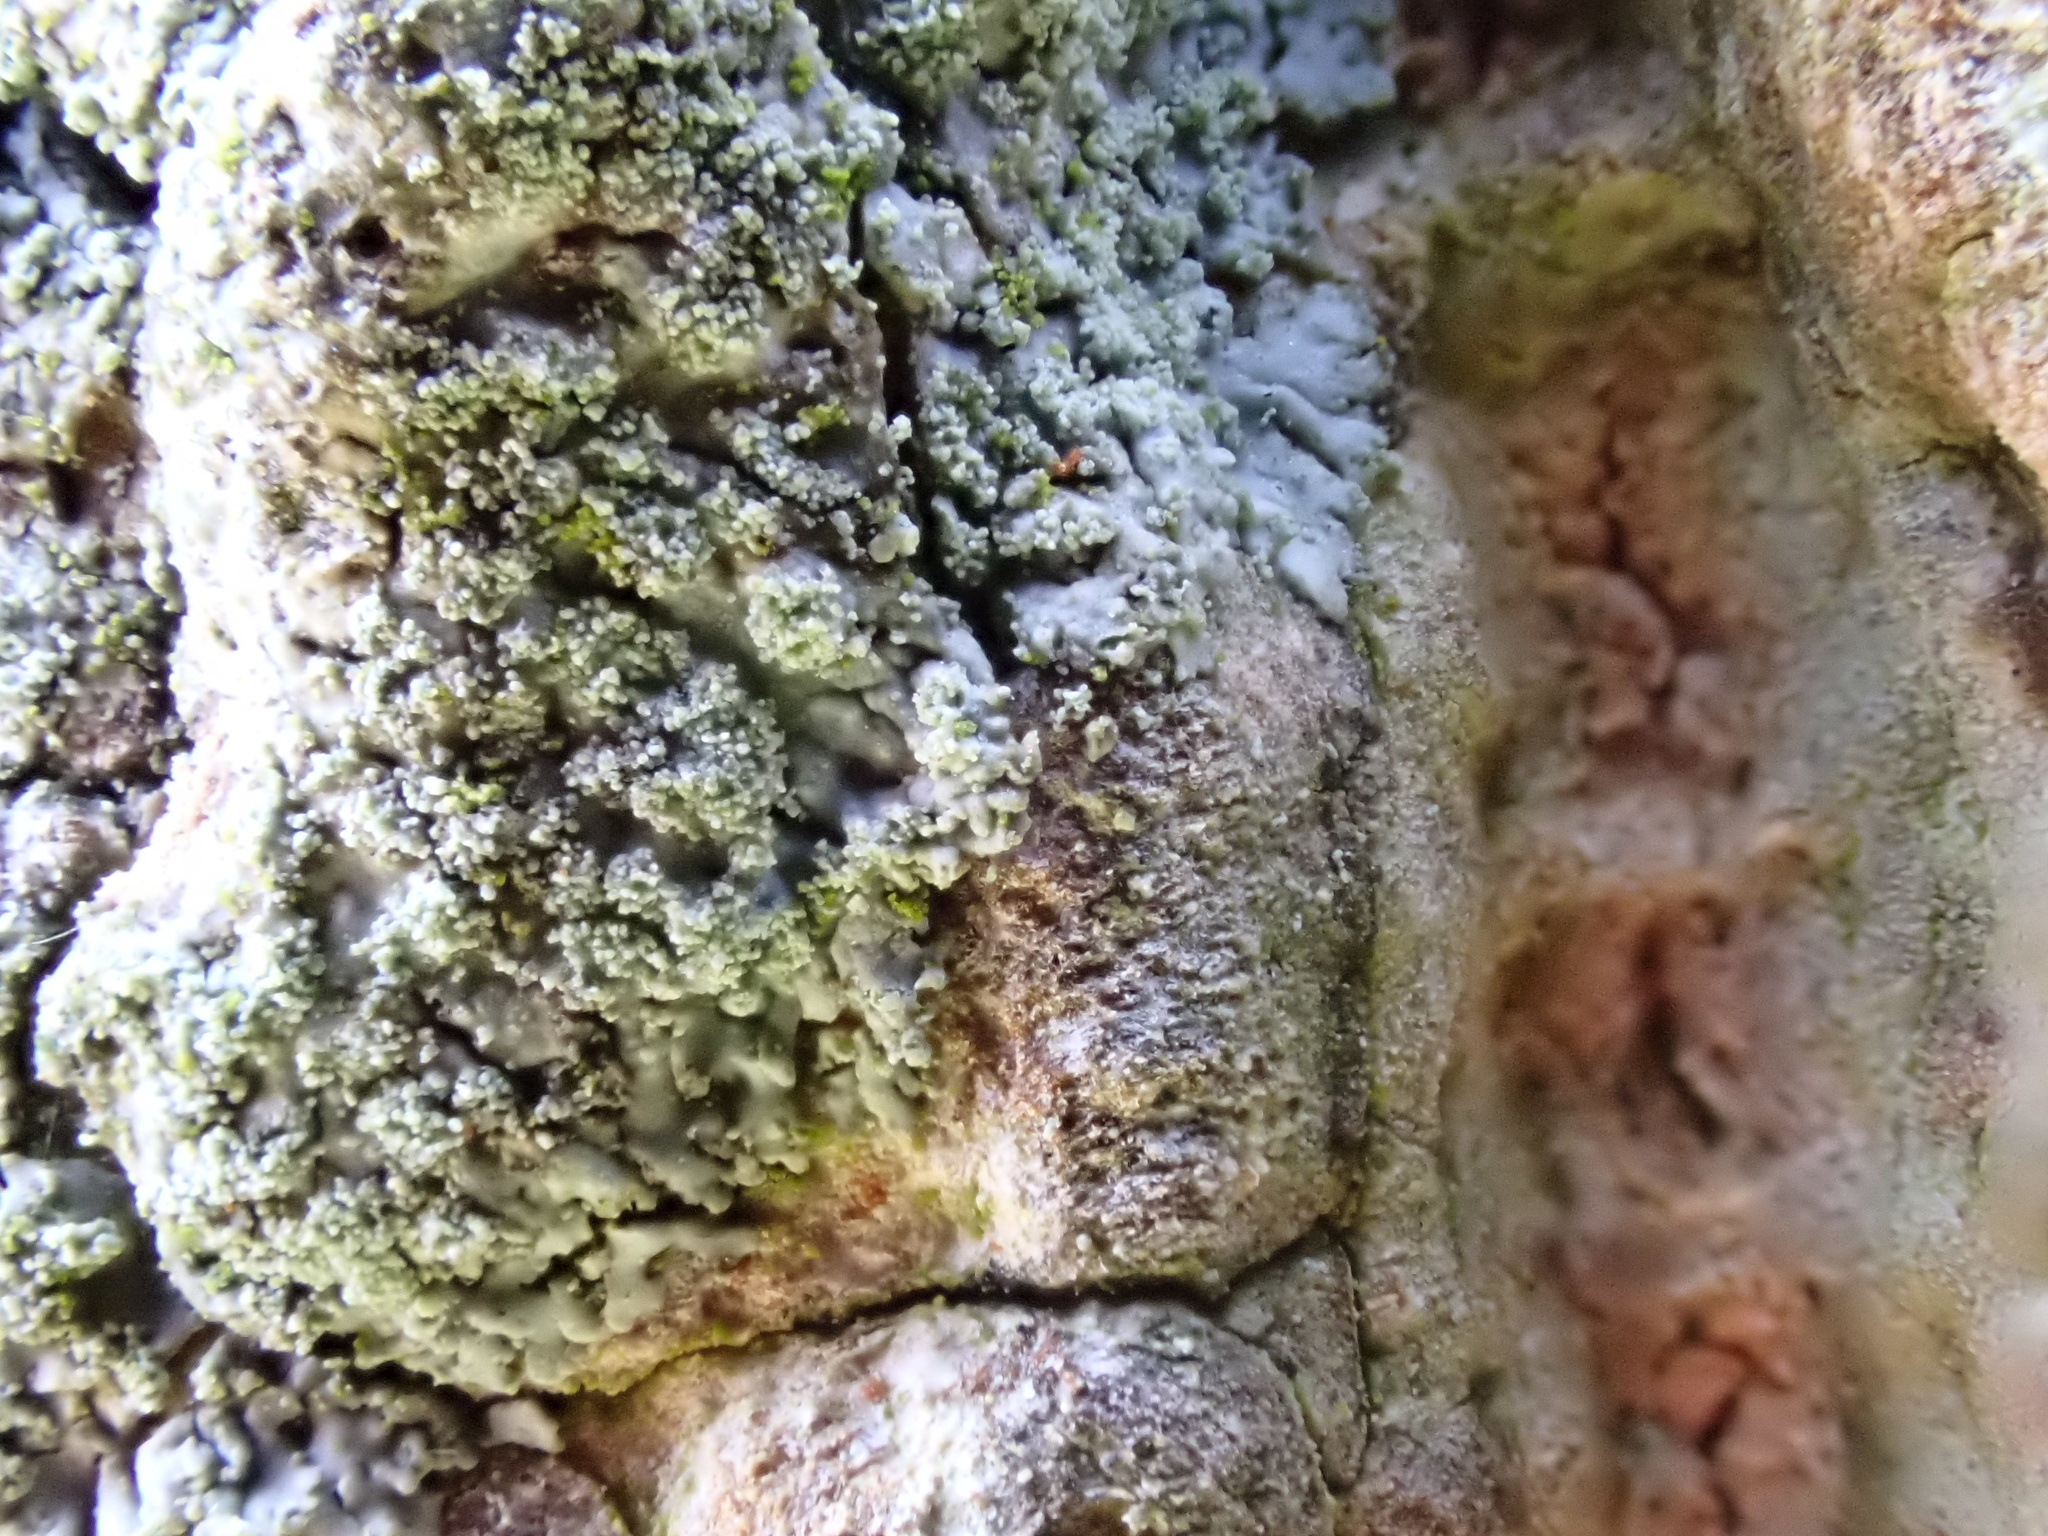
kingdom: Fungi
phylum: Ascomycota
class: Lecanoromycetes
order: Caliciales
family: Physciaceae
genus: Hyperphyscia
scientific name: Hyperphyscia adglutinata
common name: Grainy shadow-crust lichen
